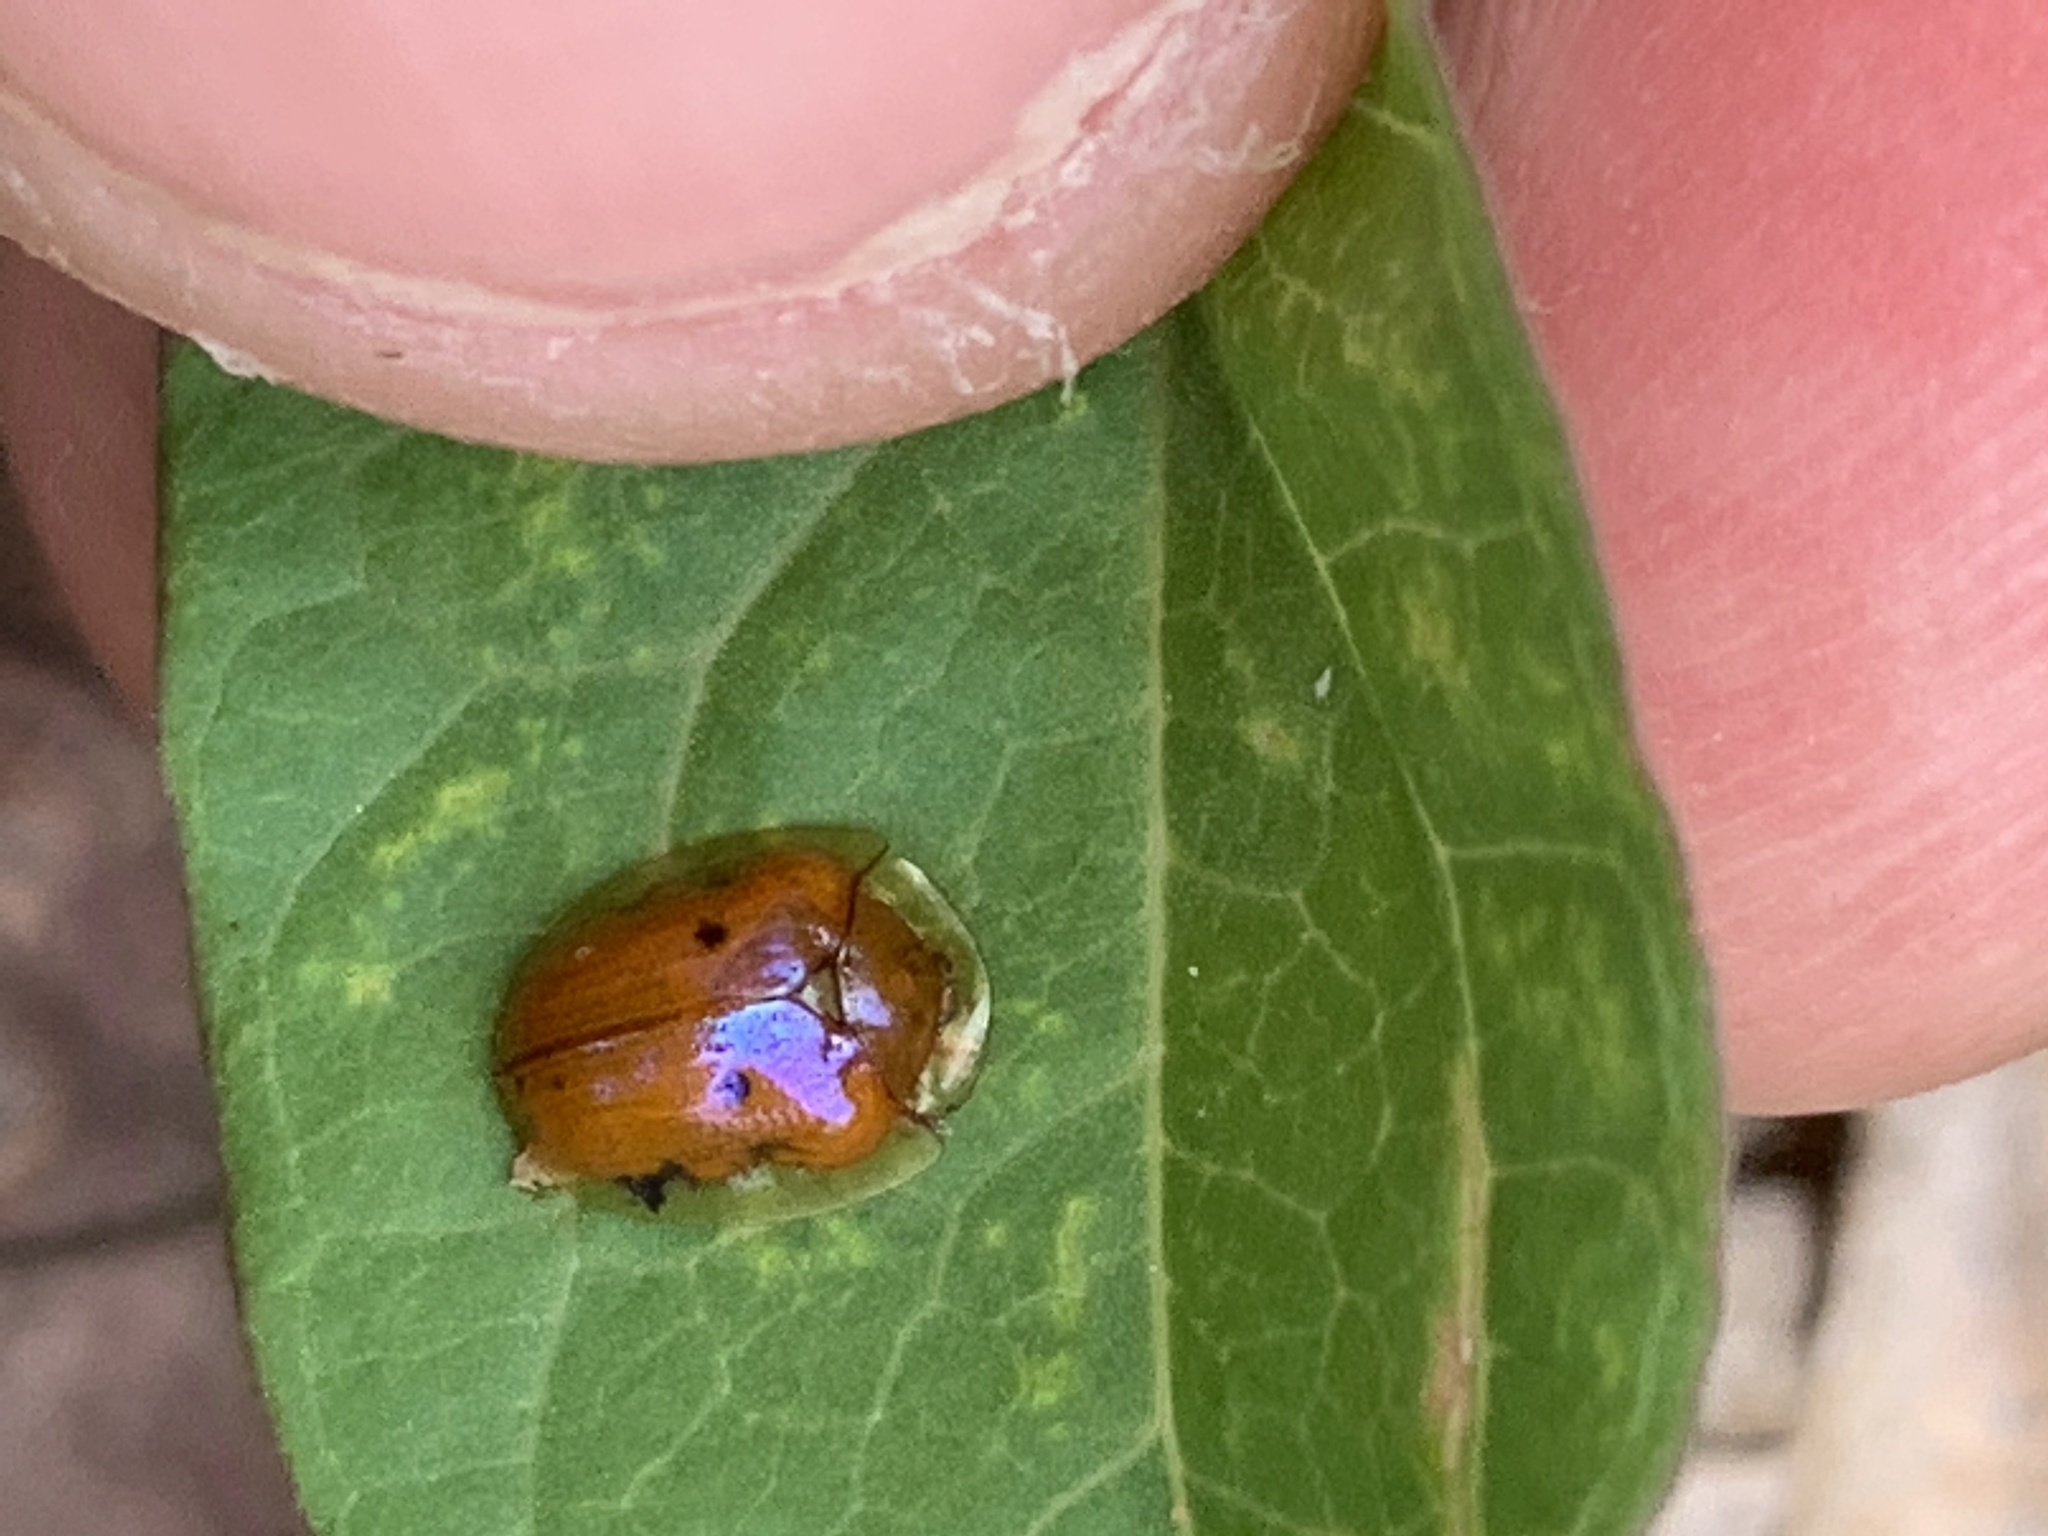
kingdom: Animalia
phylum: Arthropoda
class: Insecta
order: Coleoptera
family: Chrysomelidae
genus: Charidotella
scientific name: Charidotella sexpunctata
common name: Golden tortoise beetle
